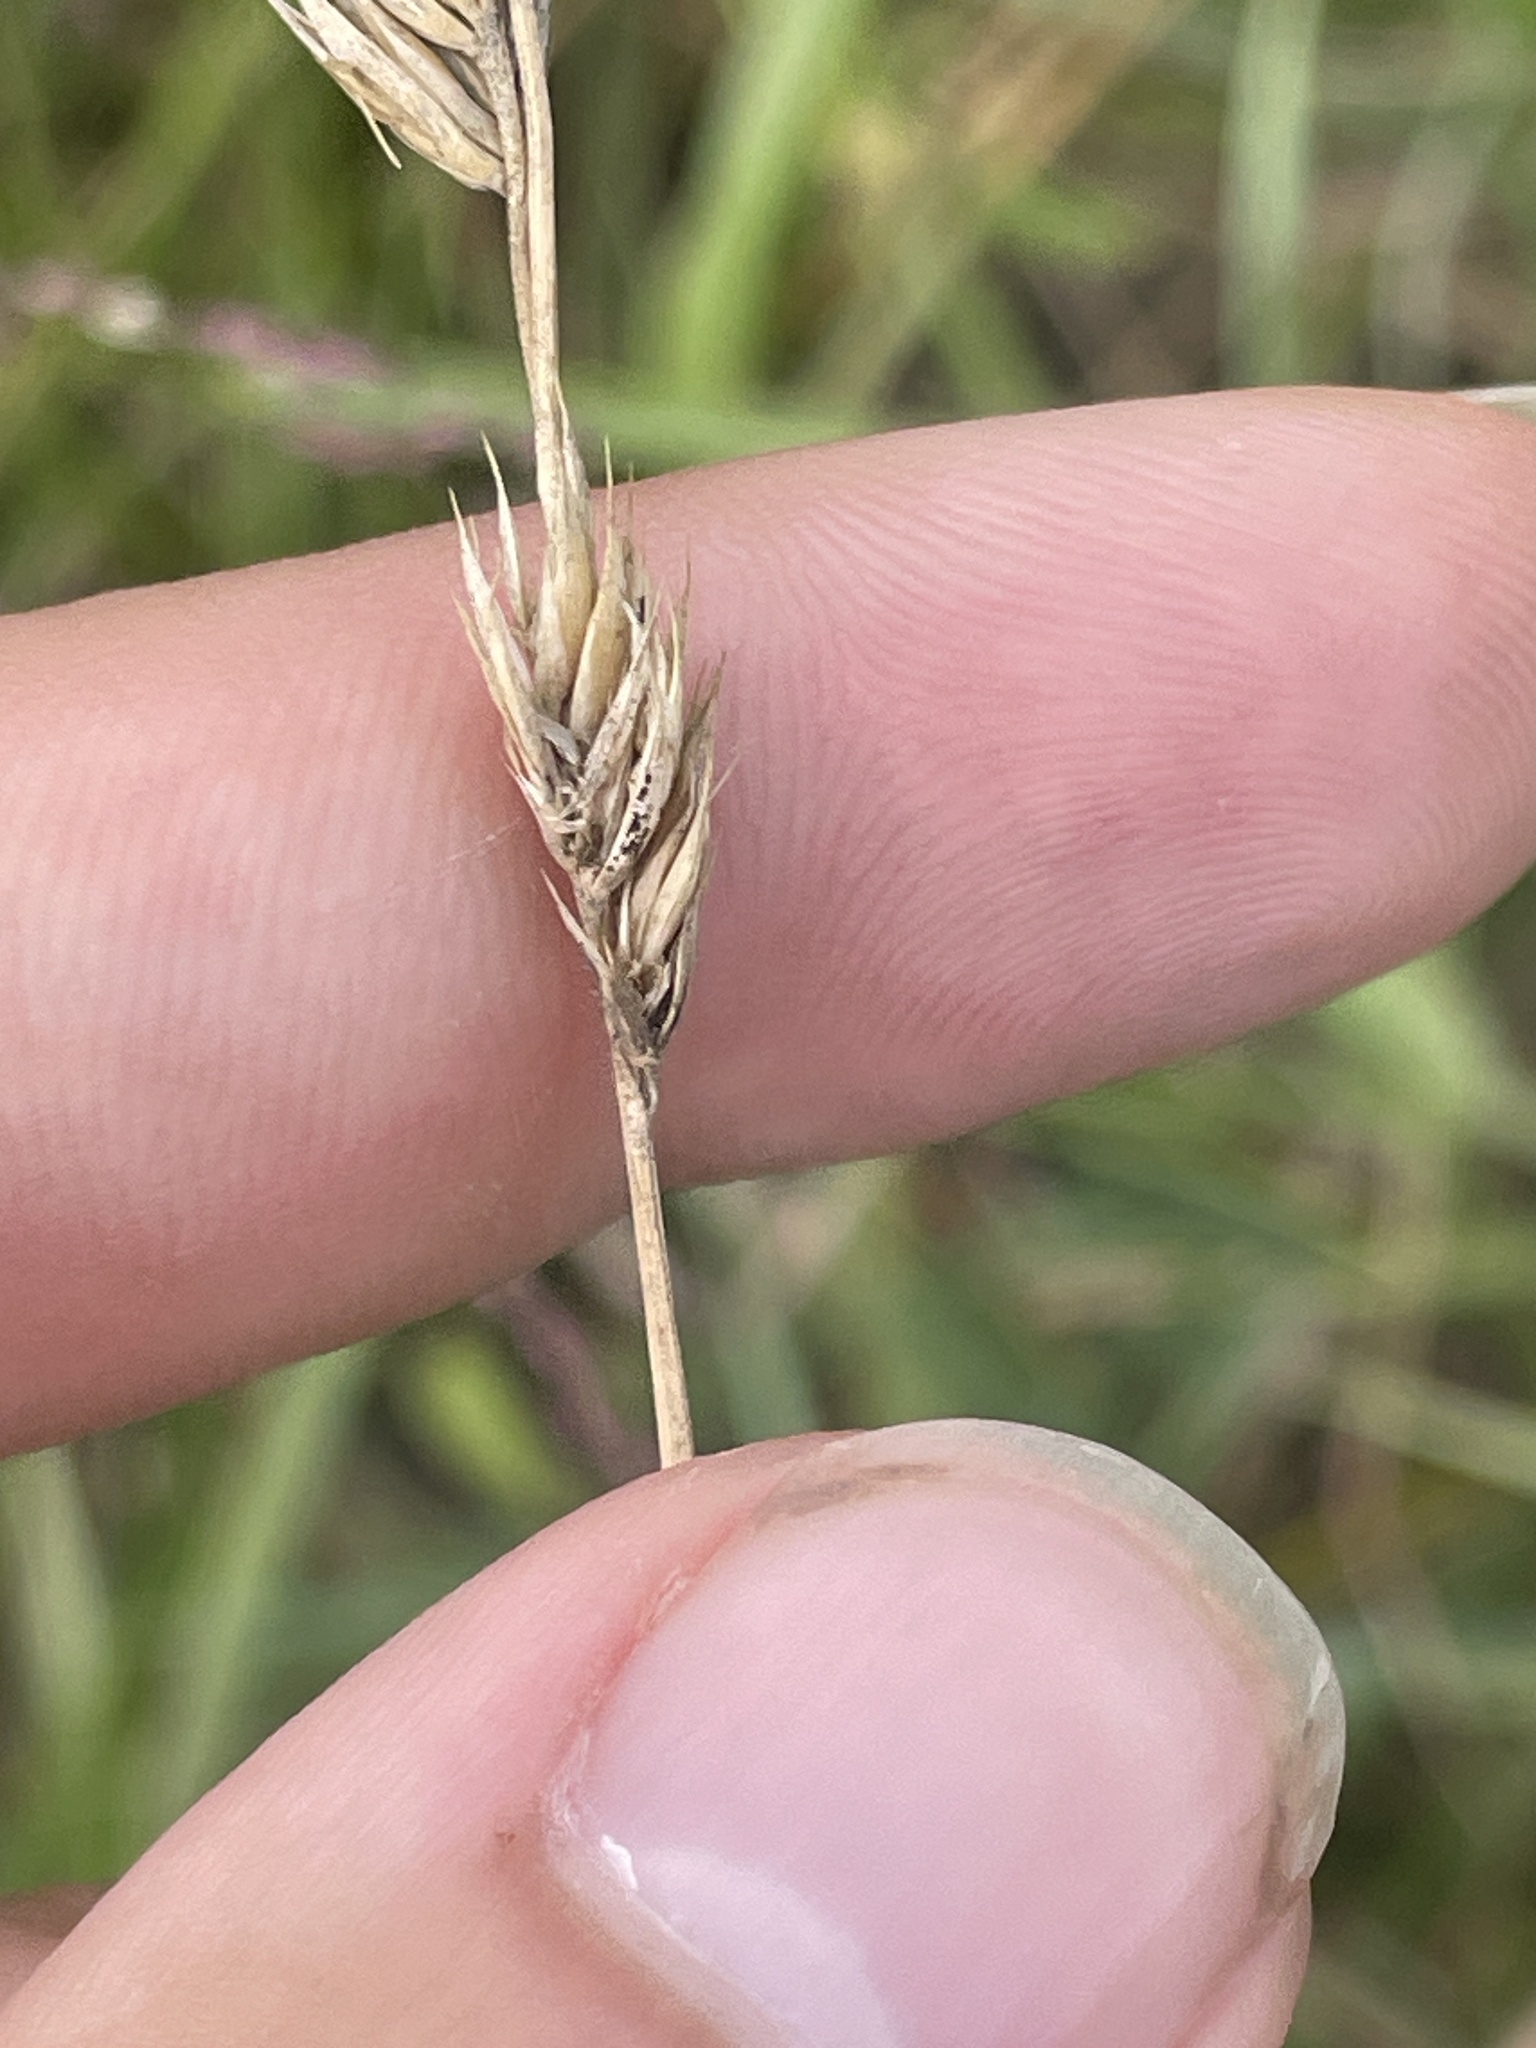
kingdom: Plantae
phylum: Tracheophyta
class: Liliopsida
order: Poales
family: Poaceae
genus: Dactylis
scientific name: Dactylis glomerata
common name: Orchardgrass
